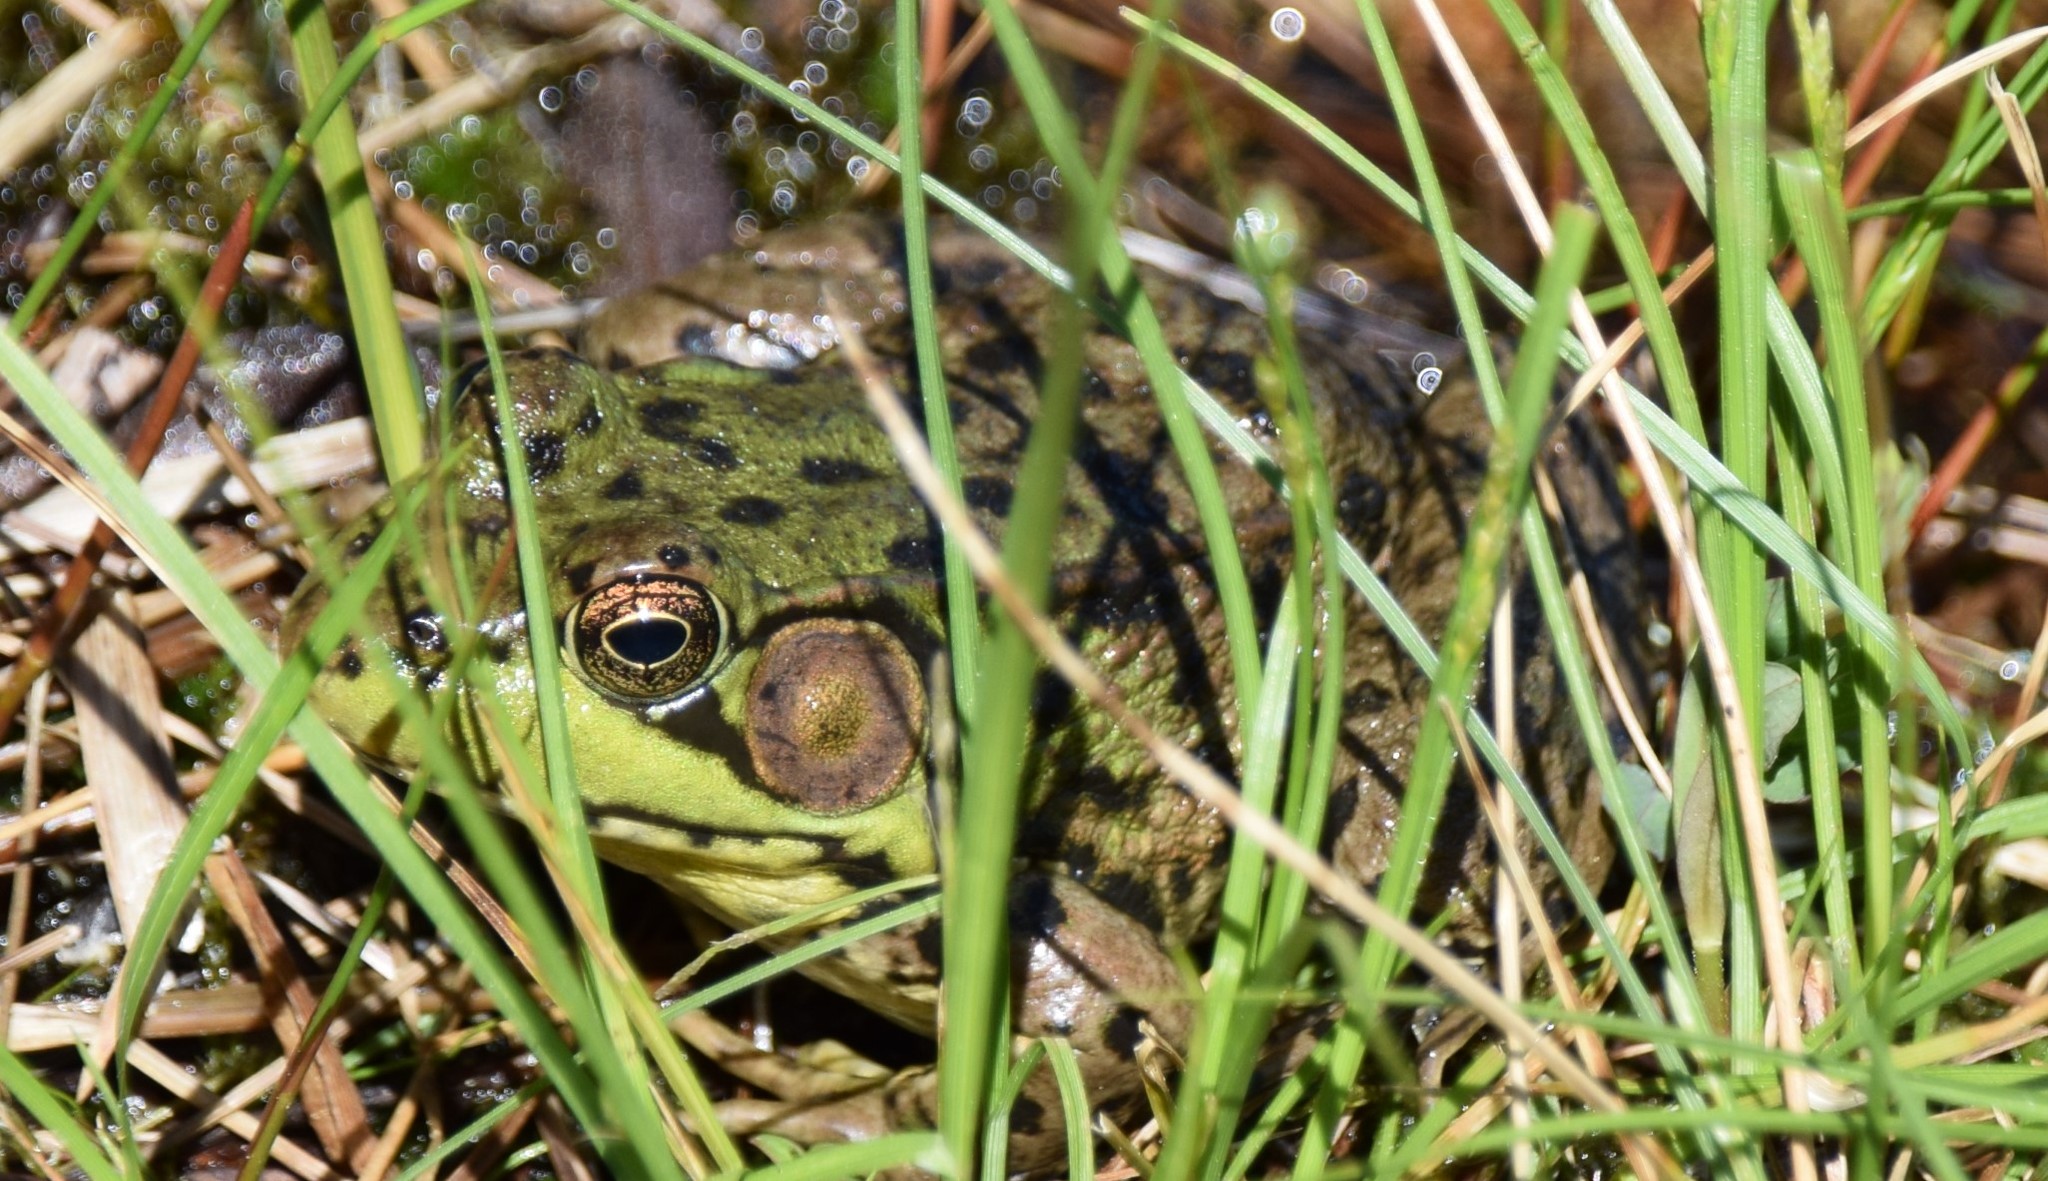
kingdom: Animalia
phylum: Chordata
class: Amphibia
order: Anura
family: Ranidae
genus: Lithobates
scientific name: Lithobates clamitans
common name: Green frog
